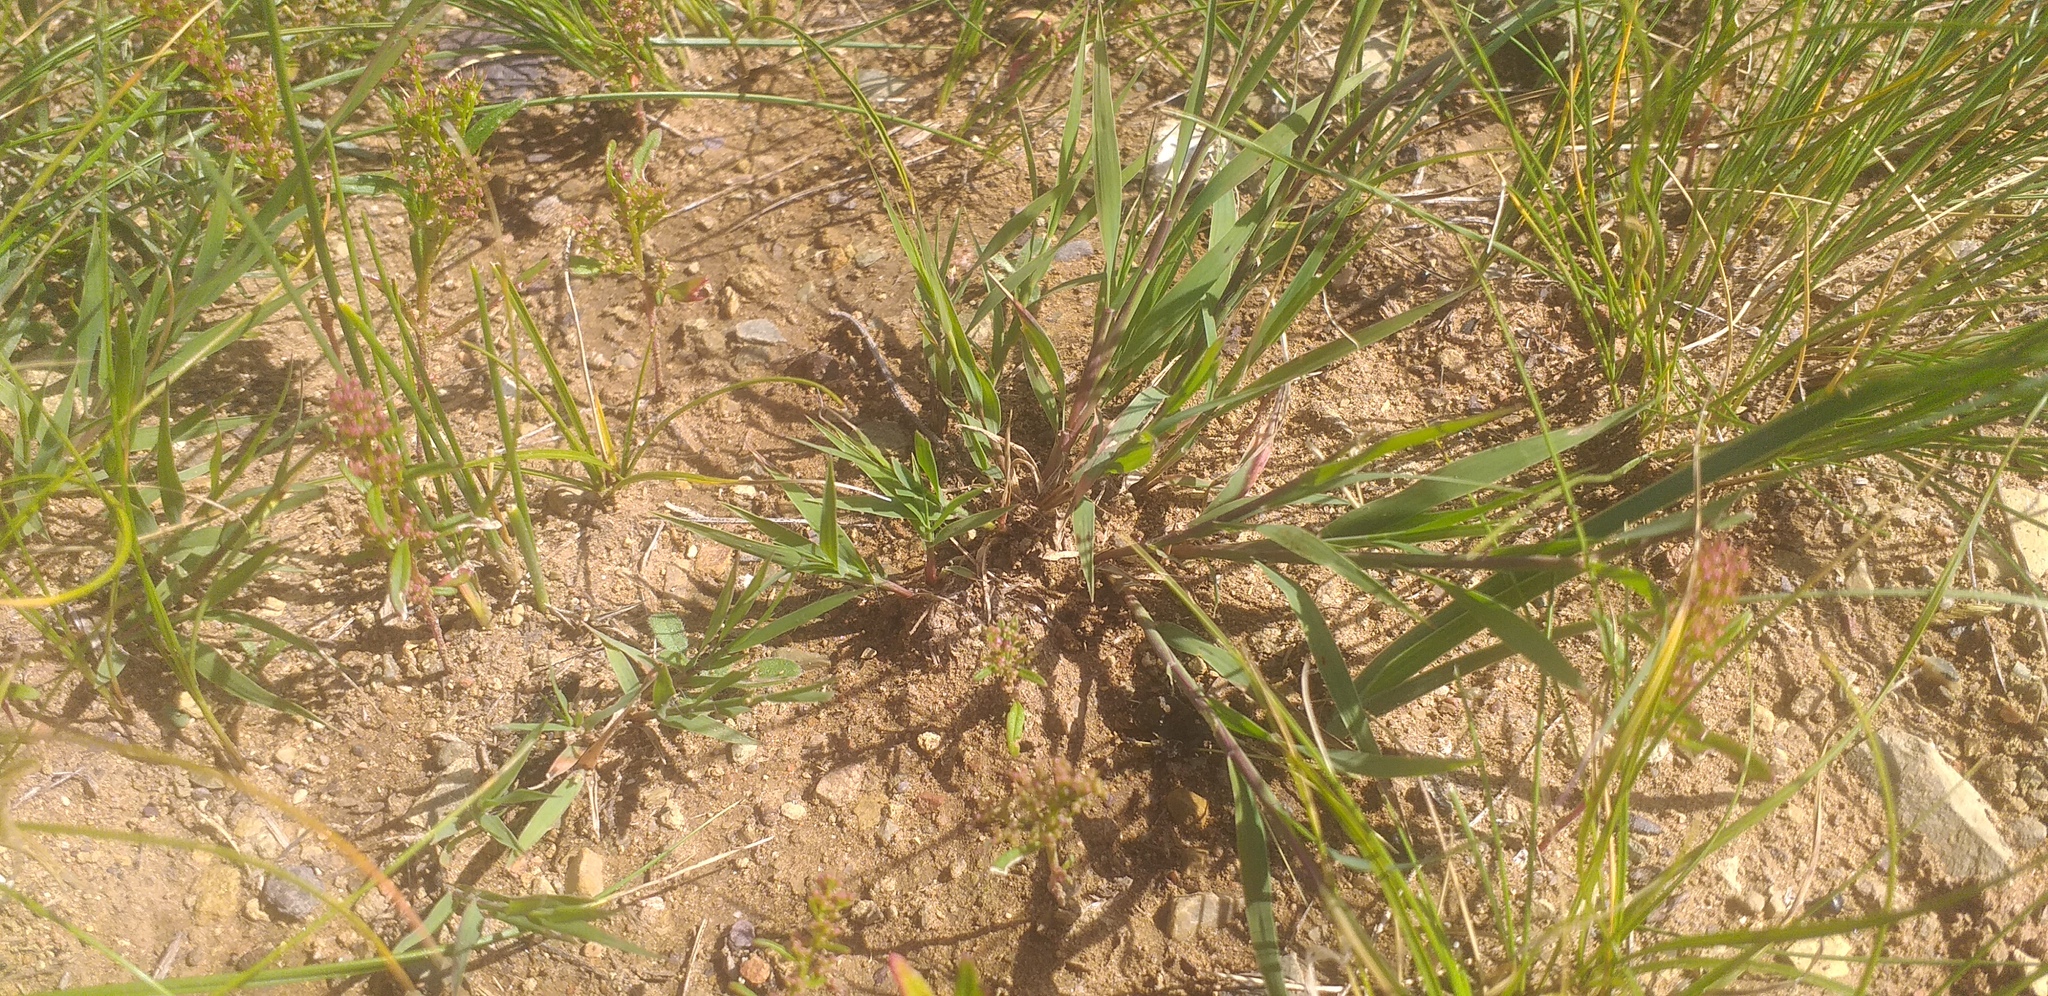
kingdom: Plantae
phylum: Tracheophyta
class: Liliopsida
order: Poales
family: Poaceae
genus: Cleistogenes
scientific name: Cleistogenes squarrosa
